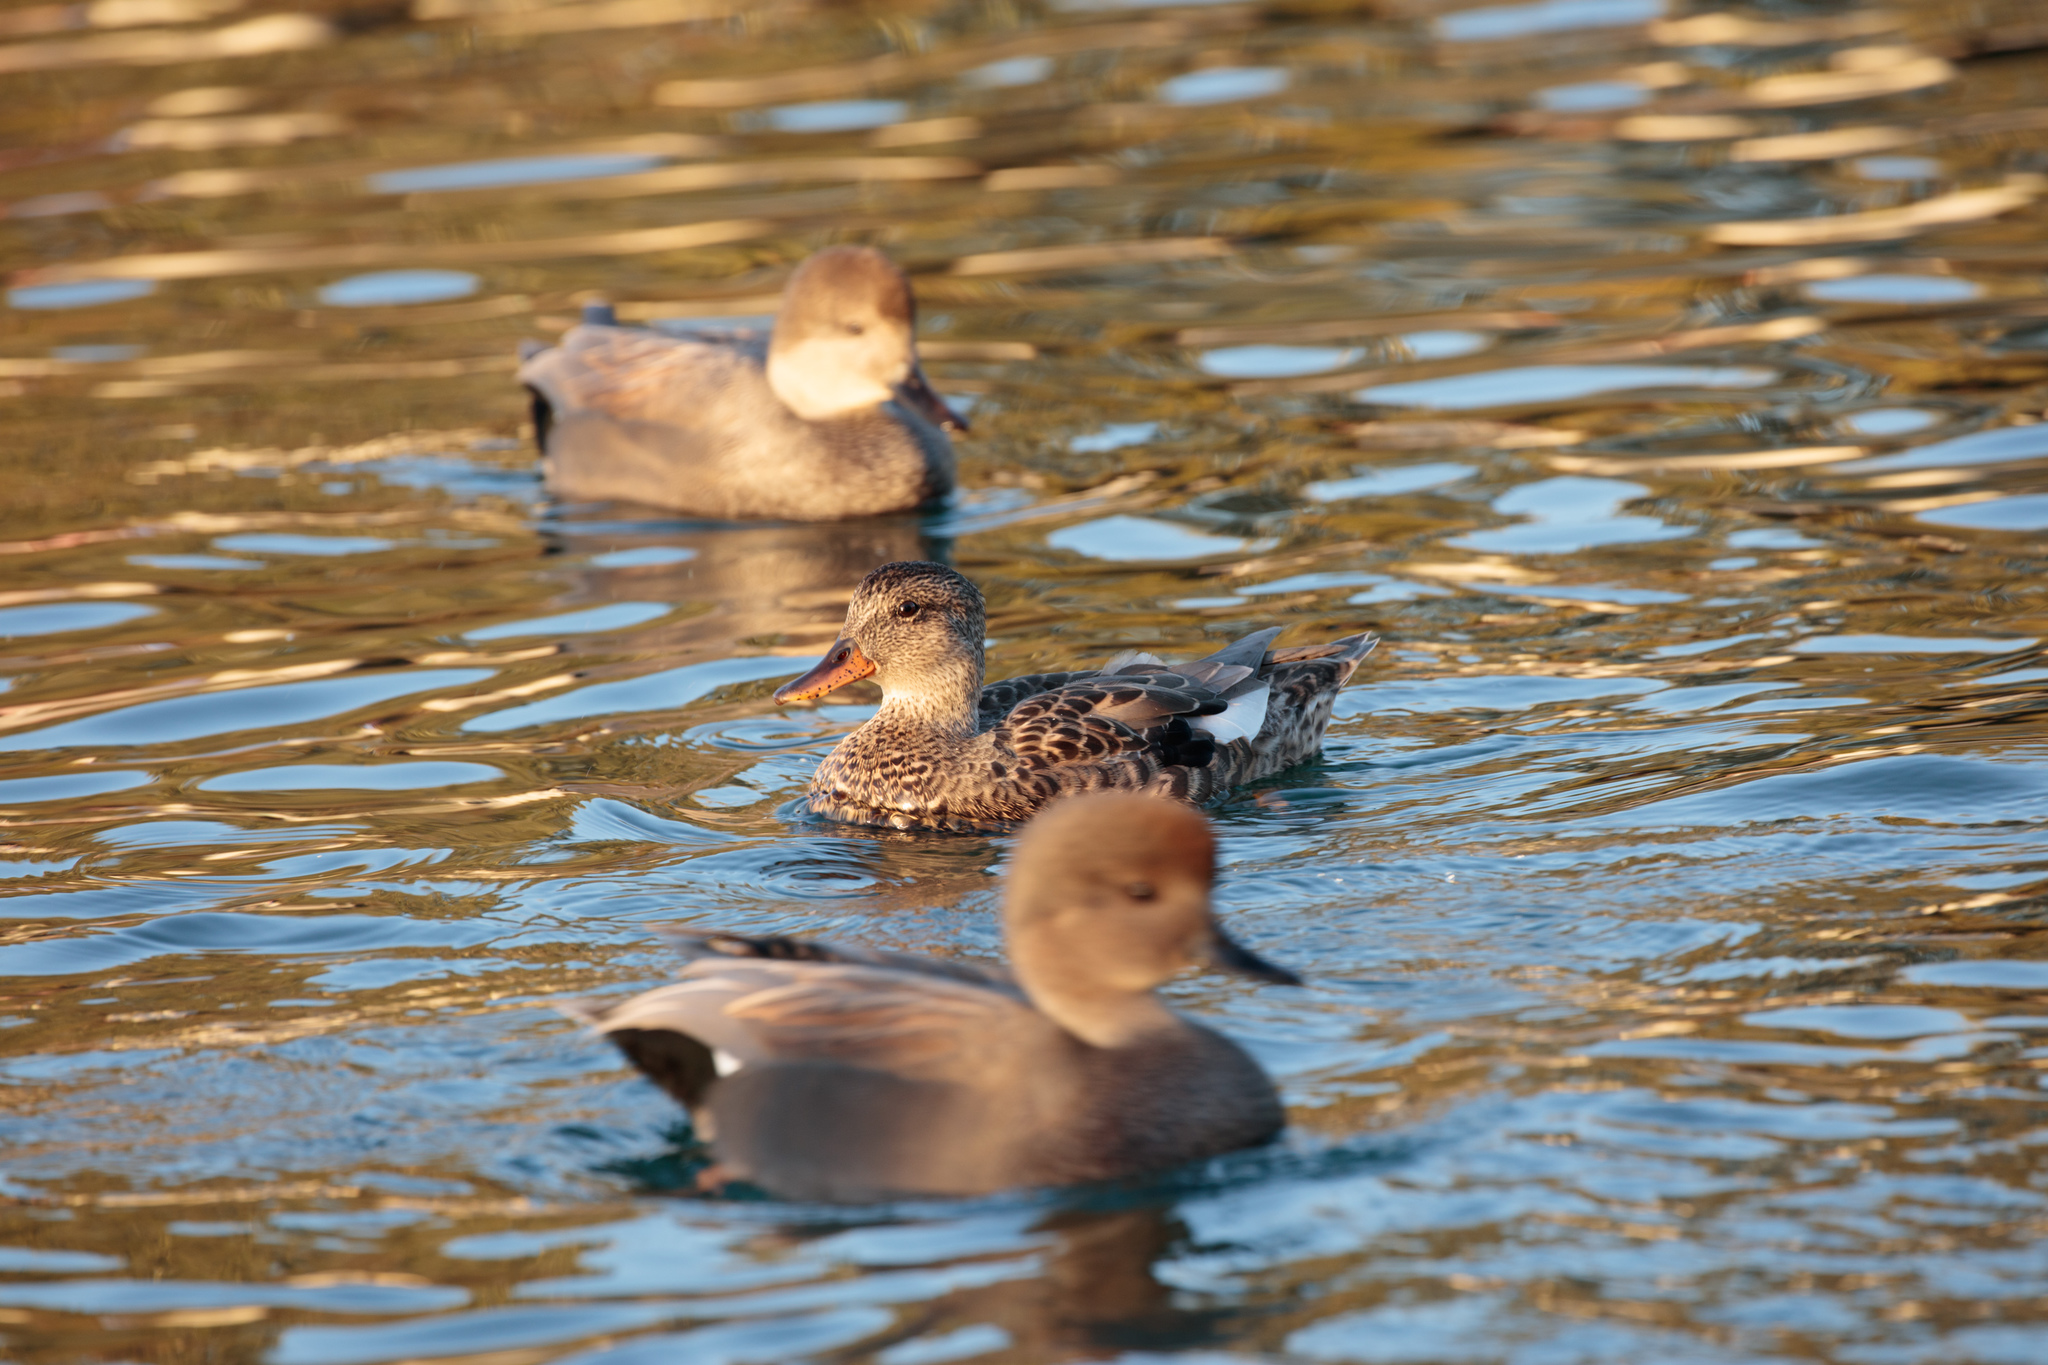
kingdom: Animalia
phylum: Chordata
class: Aves
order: Anseriformes
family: Anatidae
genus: Mareca
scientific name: Mareca strepera
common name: Gadwall
